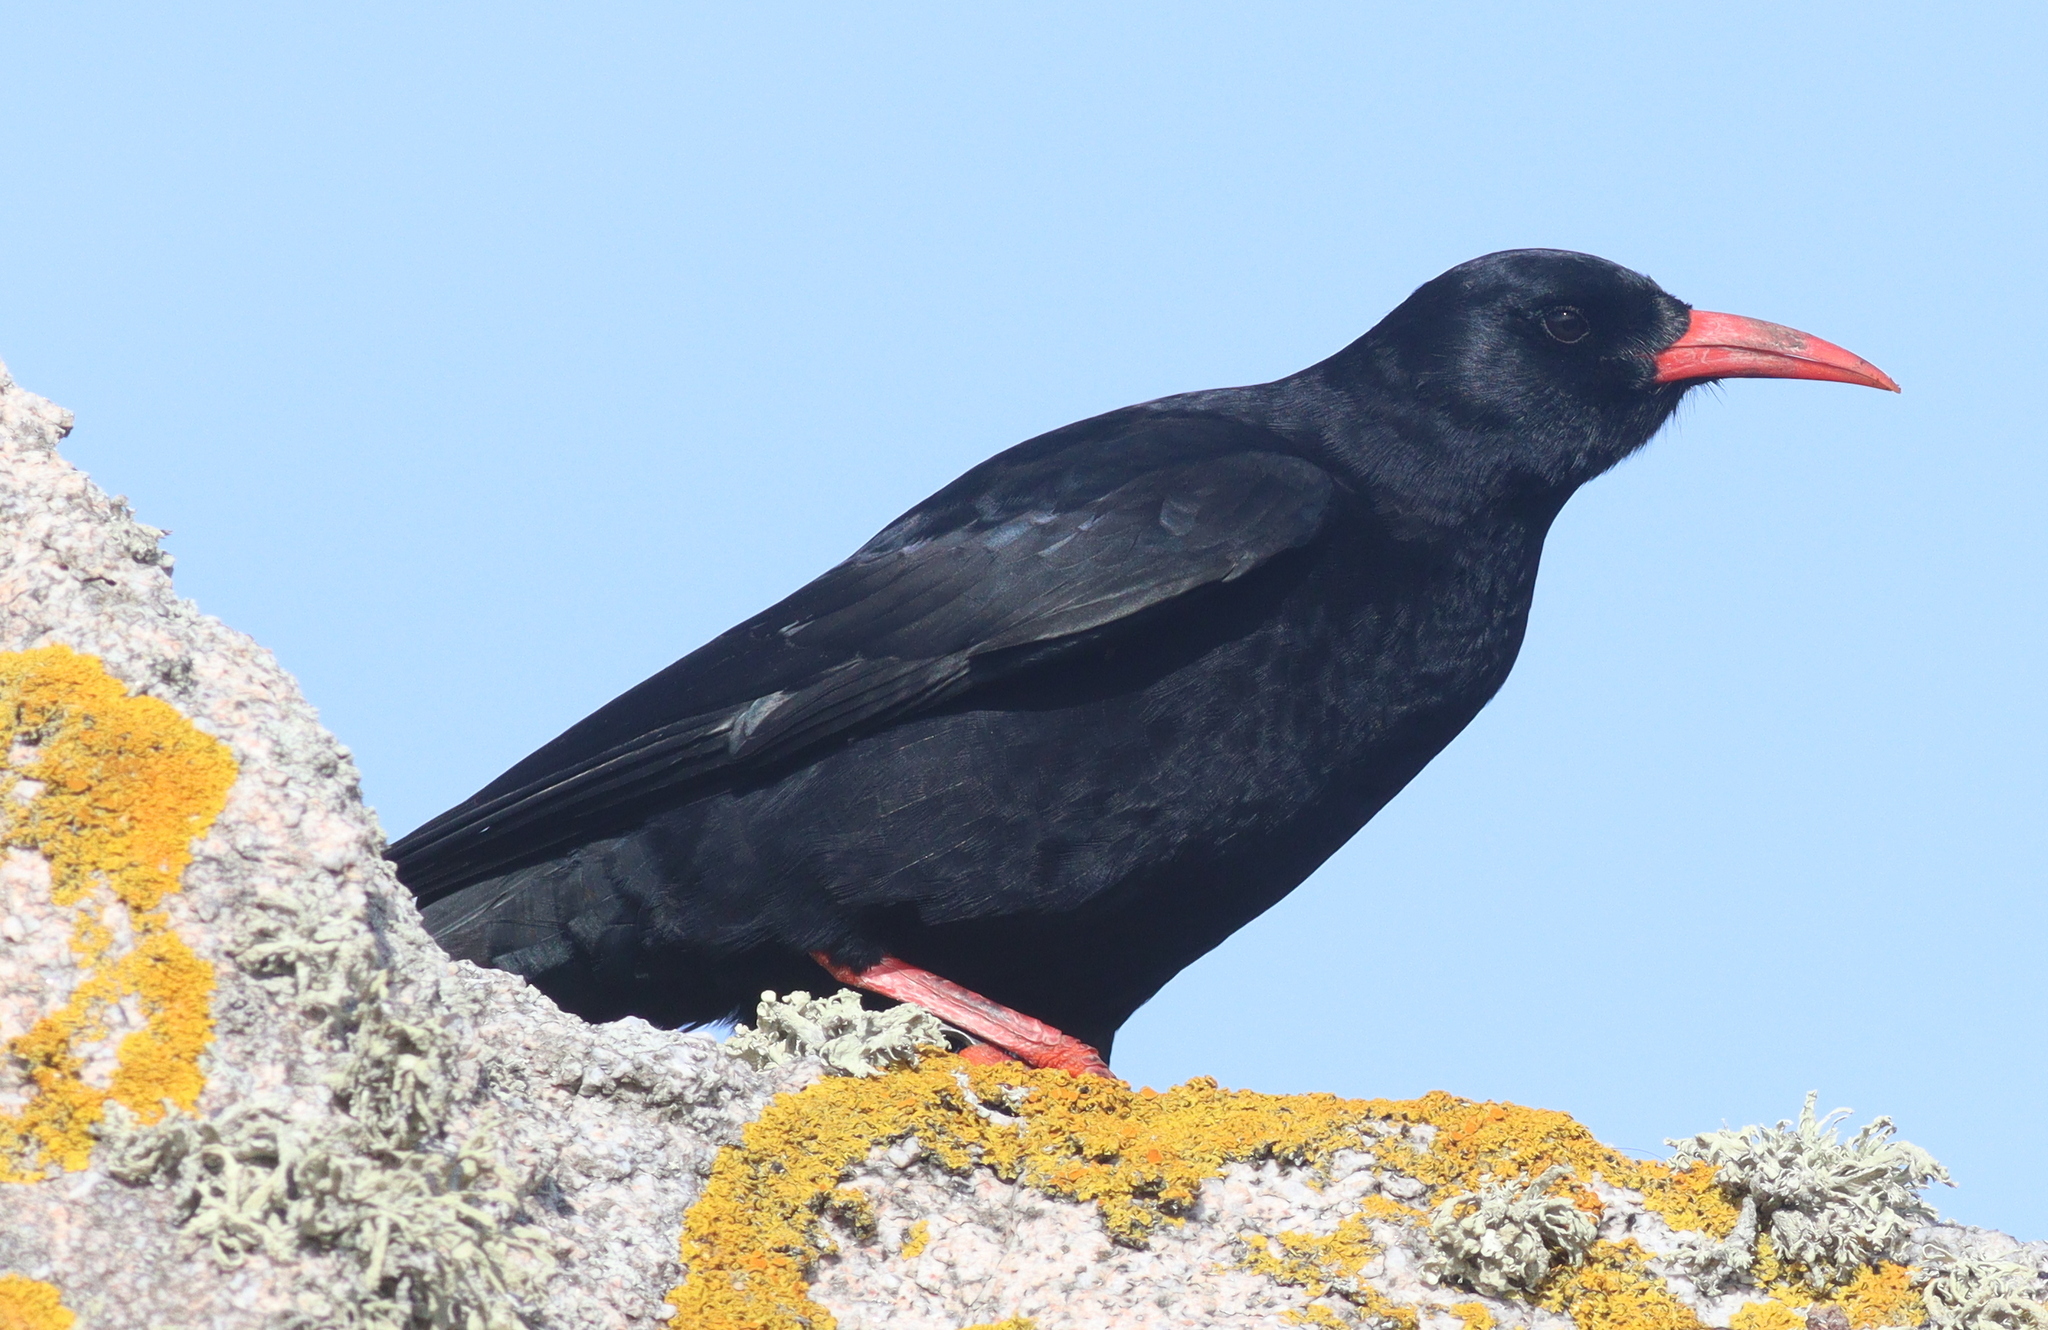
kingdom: Animalia
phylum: Chordata
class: Aves
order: Passeriformes
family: Corvidae
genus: Pyrrhocorax
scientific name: Pyrrhocorax pyrrhocorax
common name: Red-billed chough
